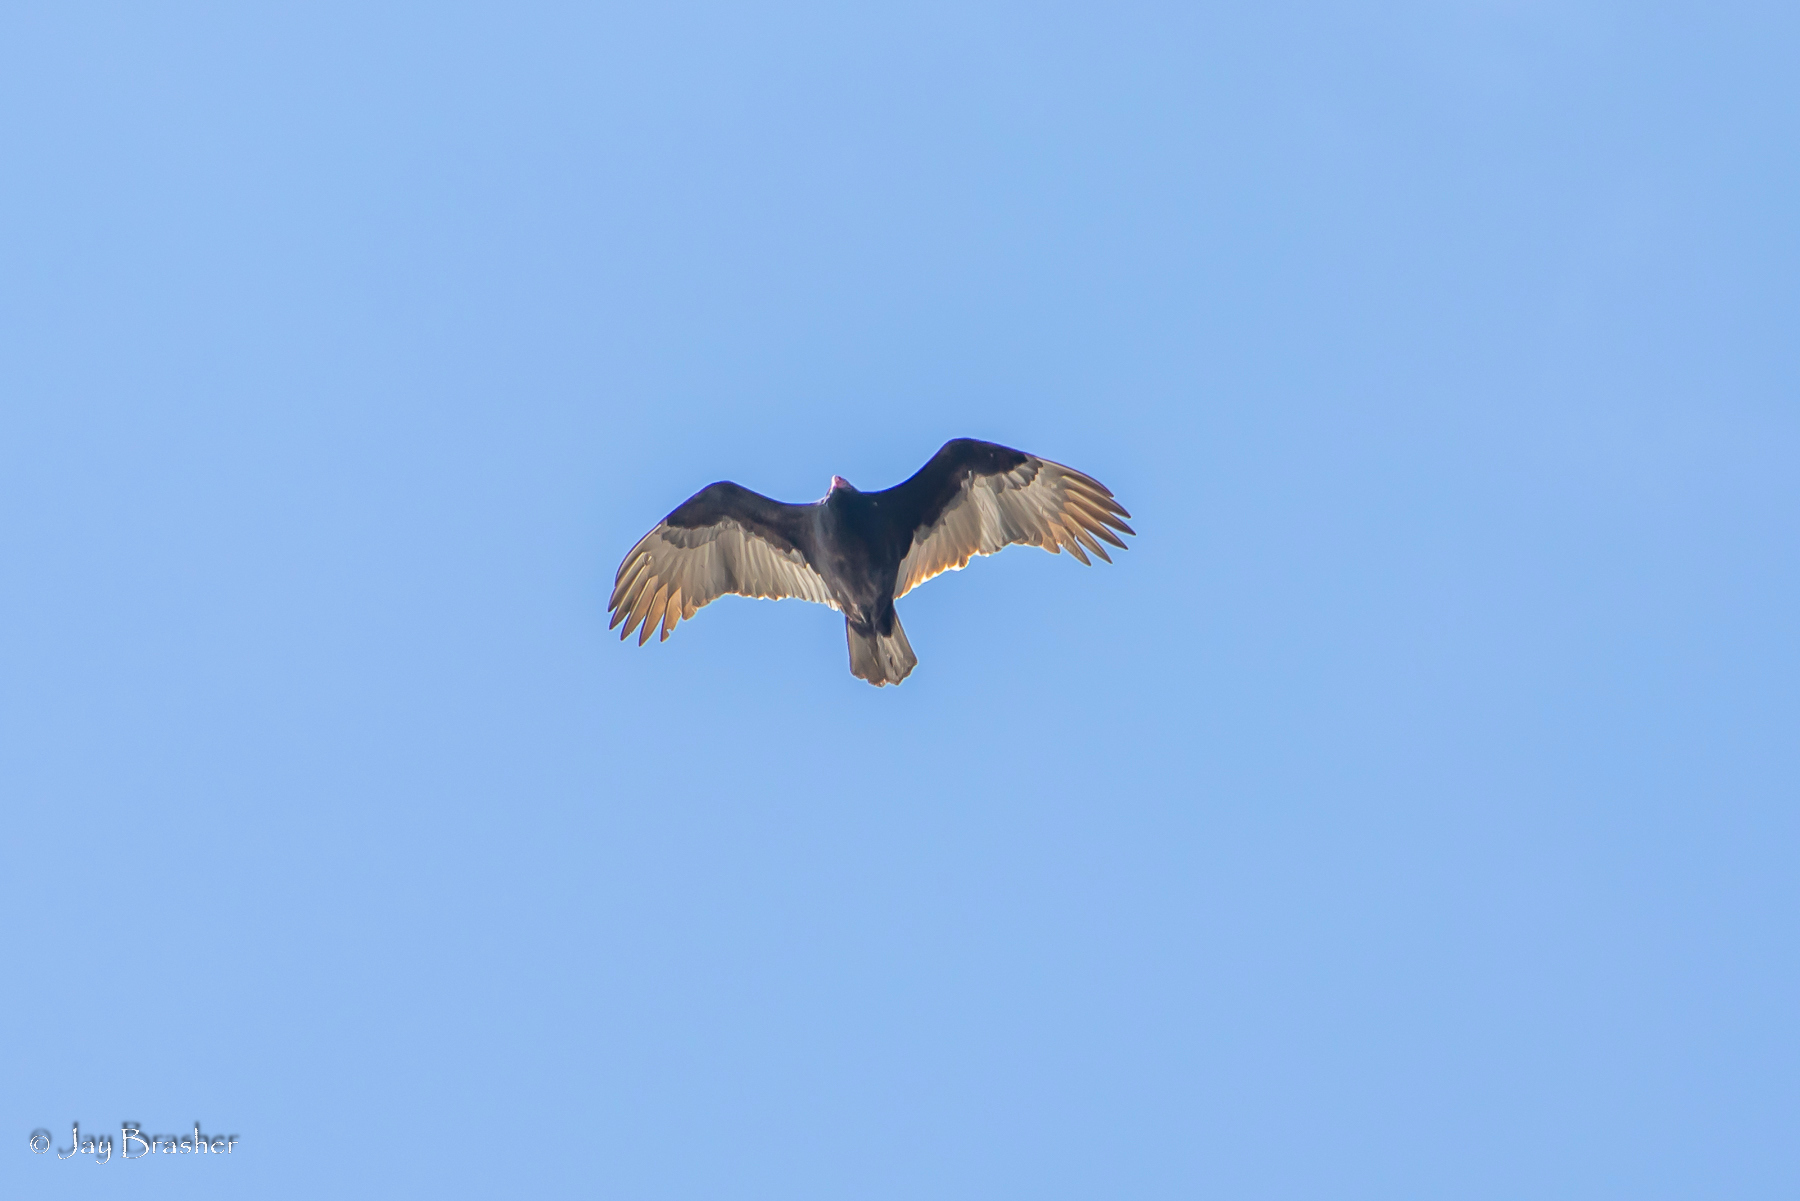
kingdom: Animalia
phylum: Chordata
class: Aves
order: Accipitriformes
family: Cathartidae
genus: Cathartes
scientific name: Cathartes aura
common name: Turkey vulture
